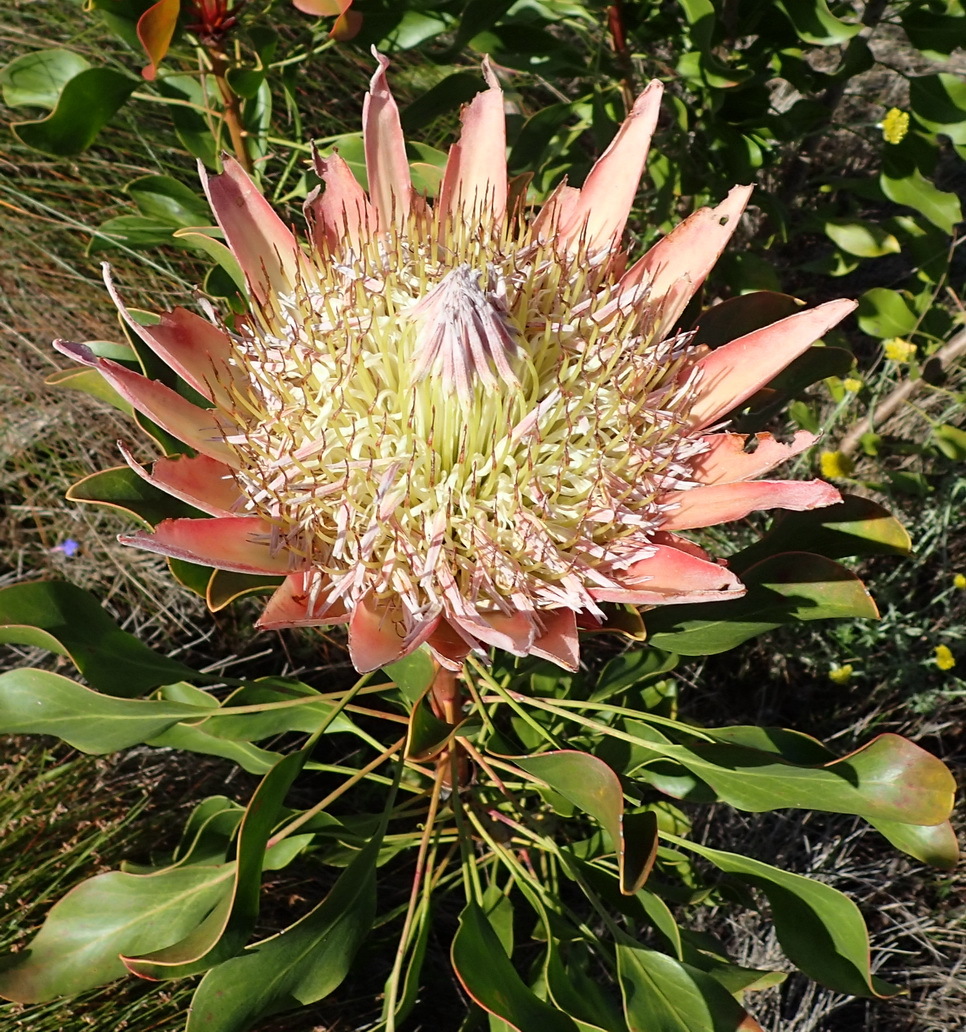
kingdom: Plantae
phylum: Tracheophyta
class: Magnoliopsida
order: Proteales
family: Proteaceae
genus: Protea
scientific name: Protea cynaroides
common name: King protea
